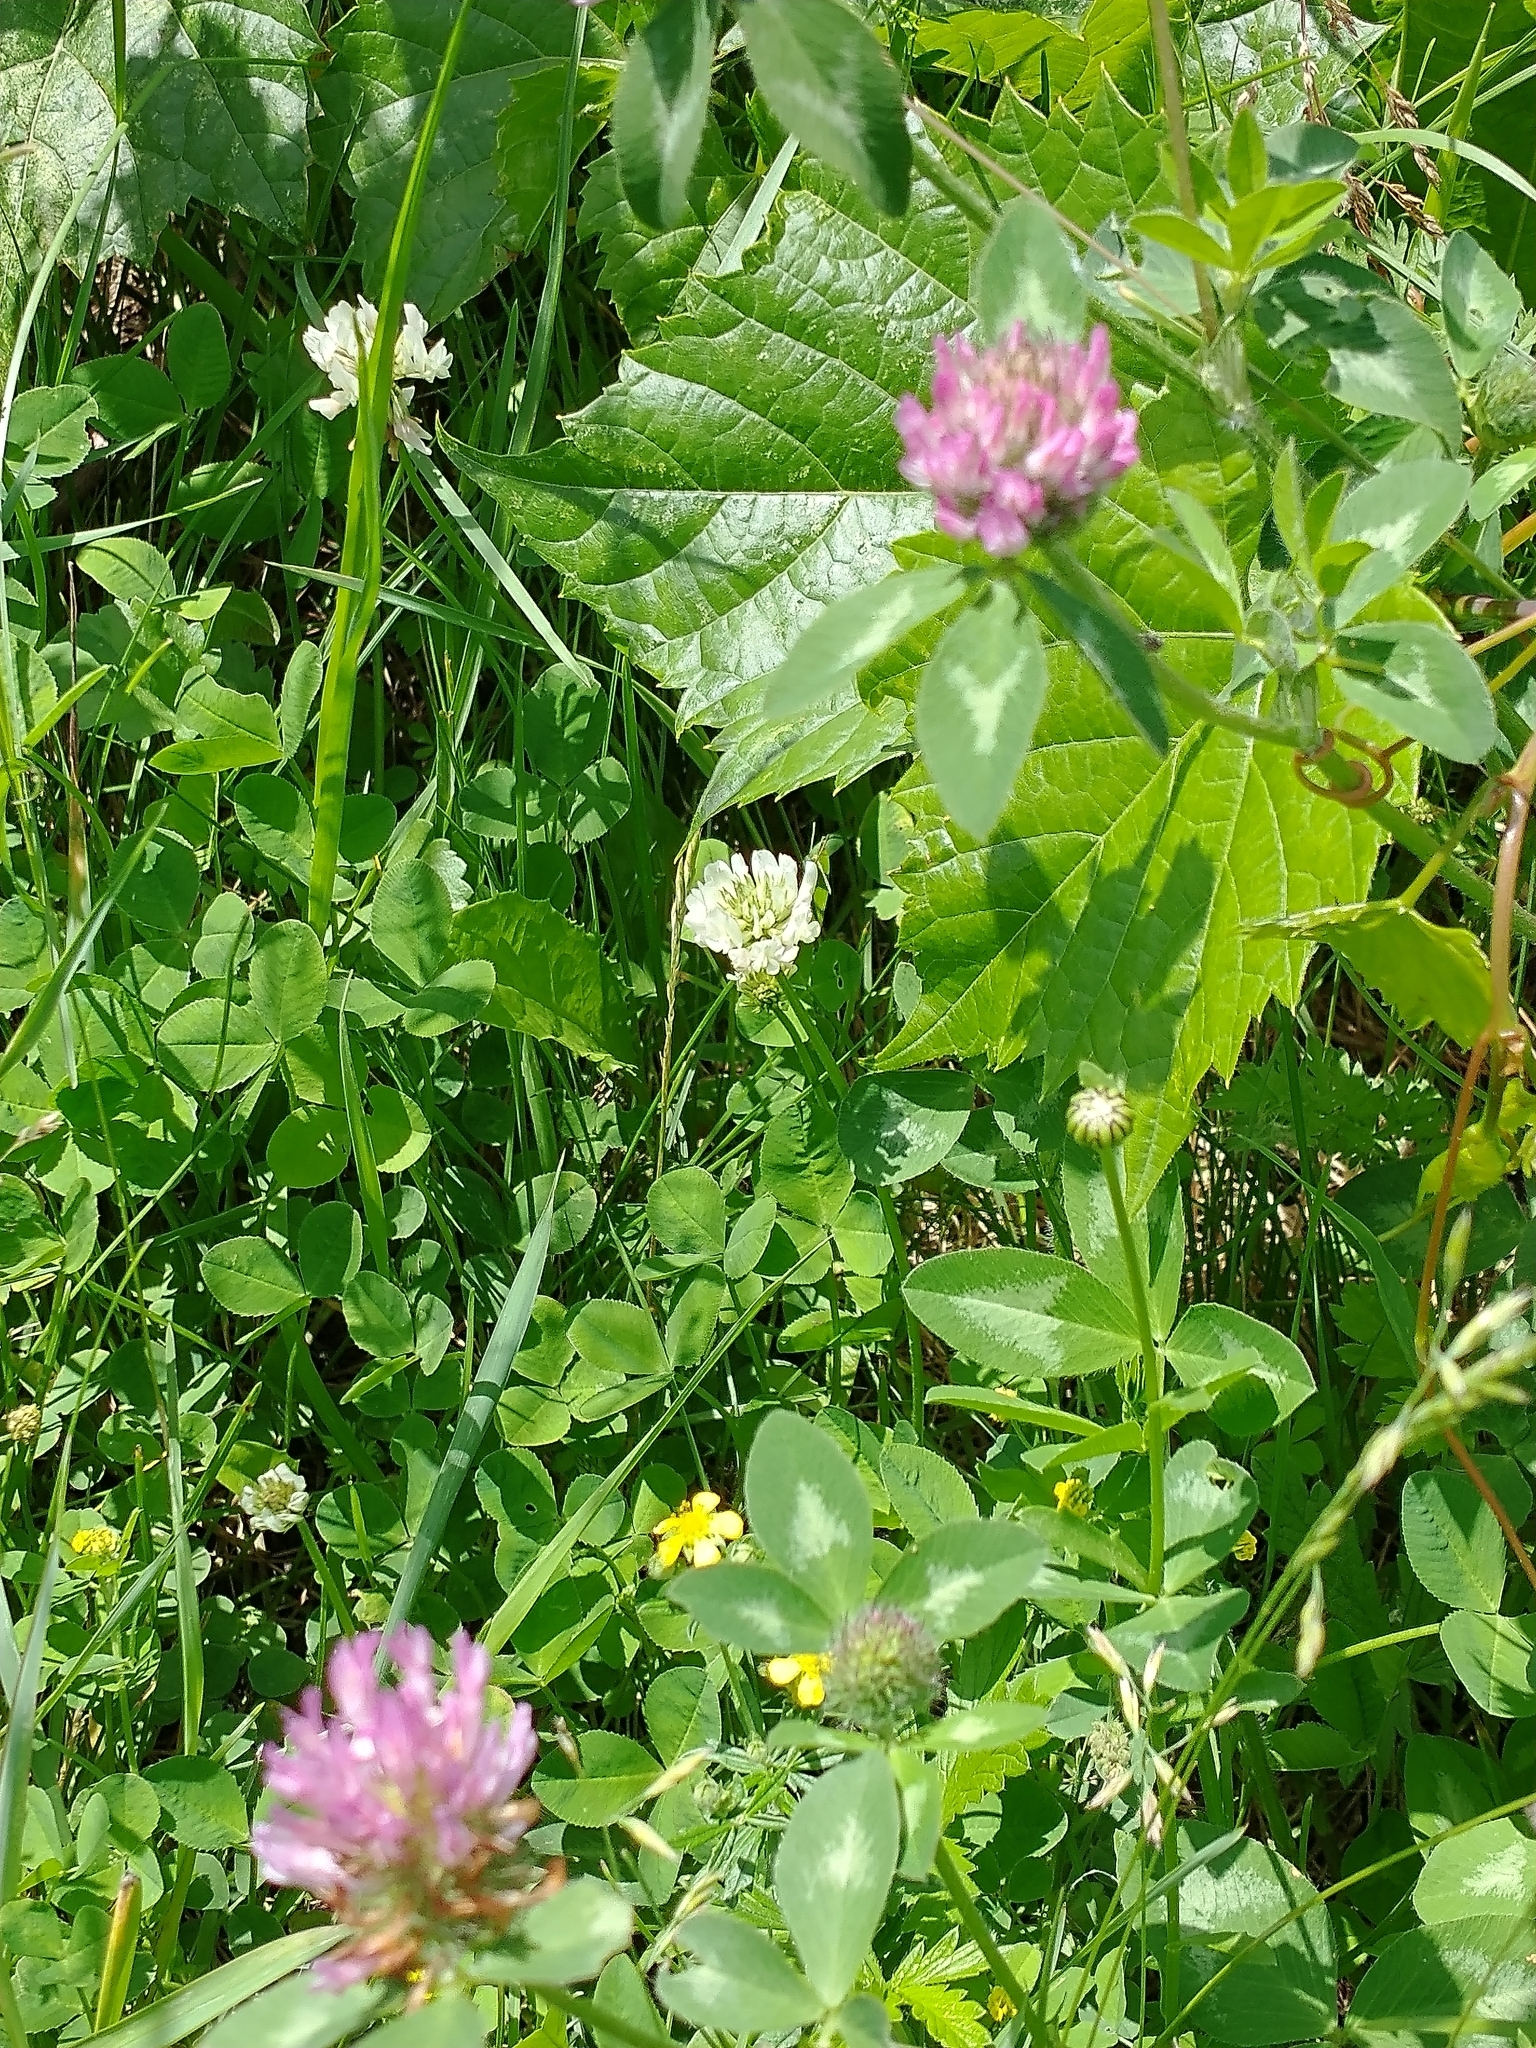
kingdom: Plantae
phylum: Tracheophyta
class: Magnoliopsida
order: Fabales
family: Fabaceae
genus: Trifolium
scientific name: Trifolium pratense
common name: Red clover
